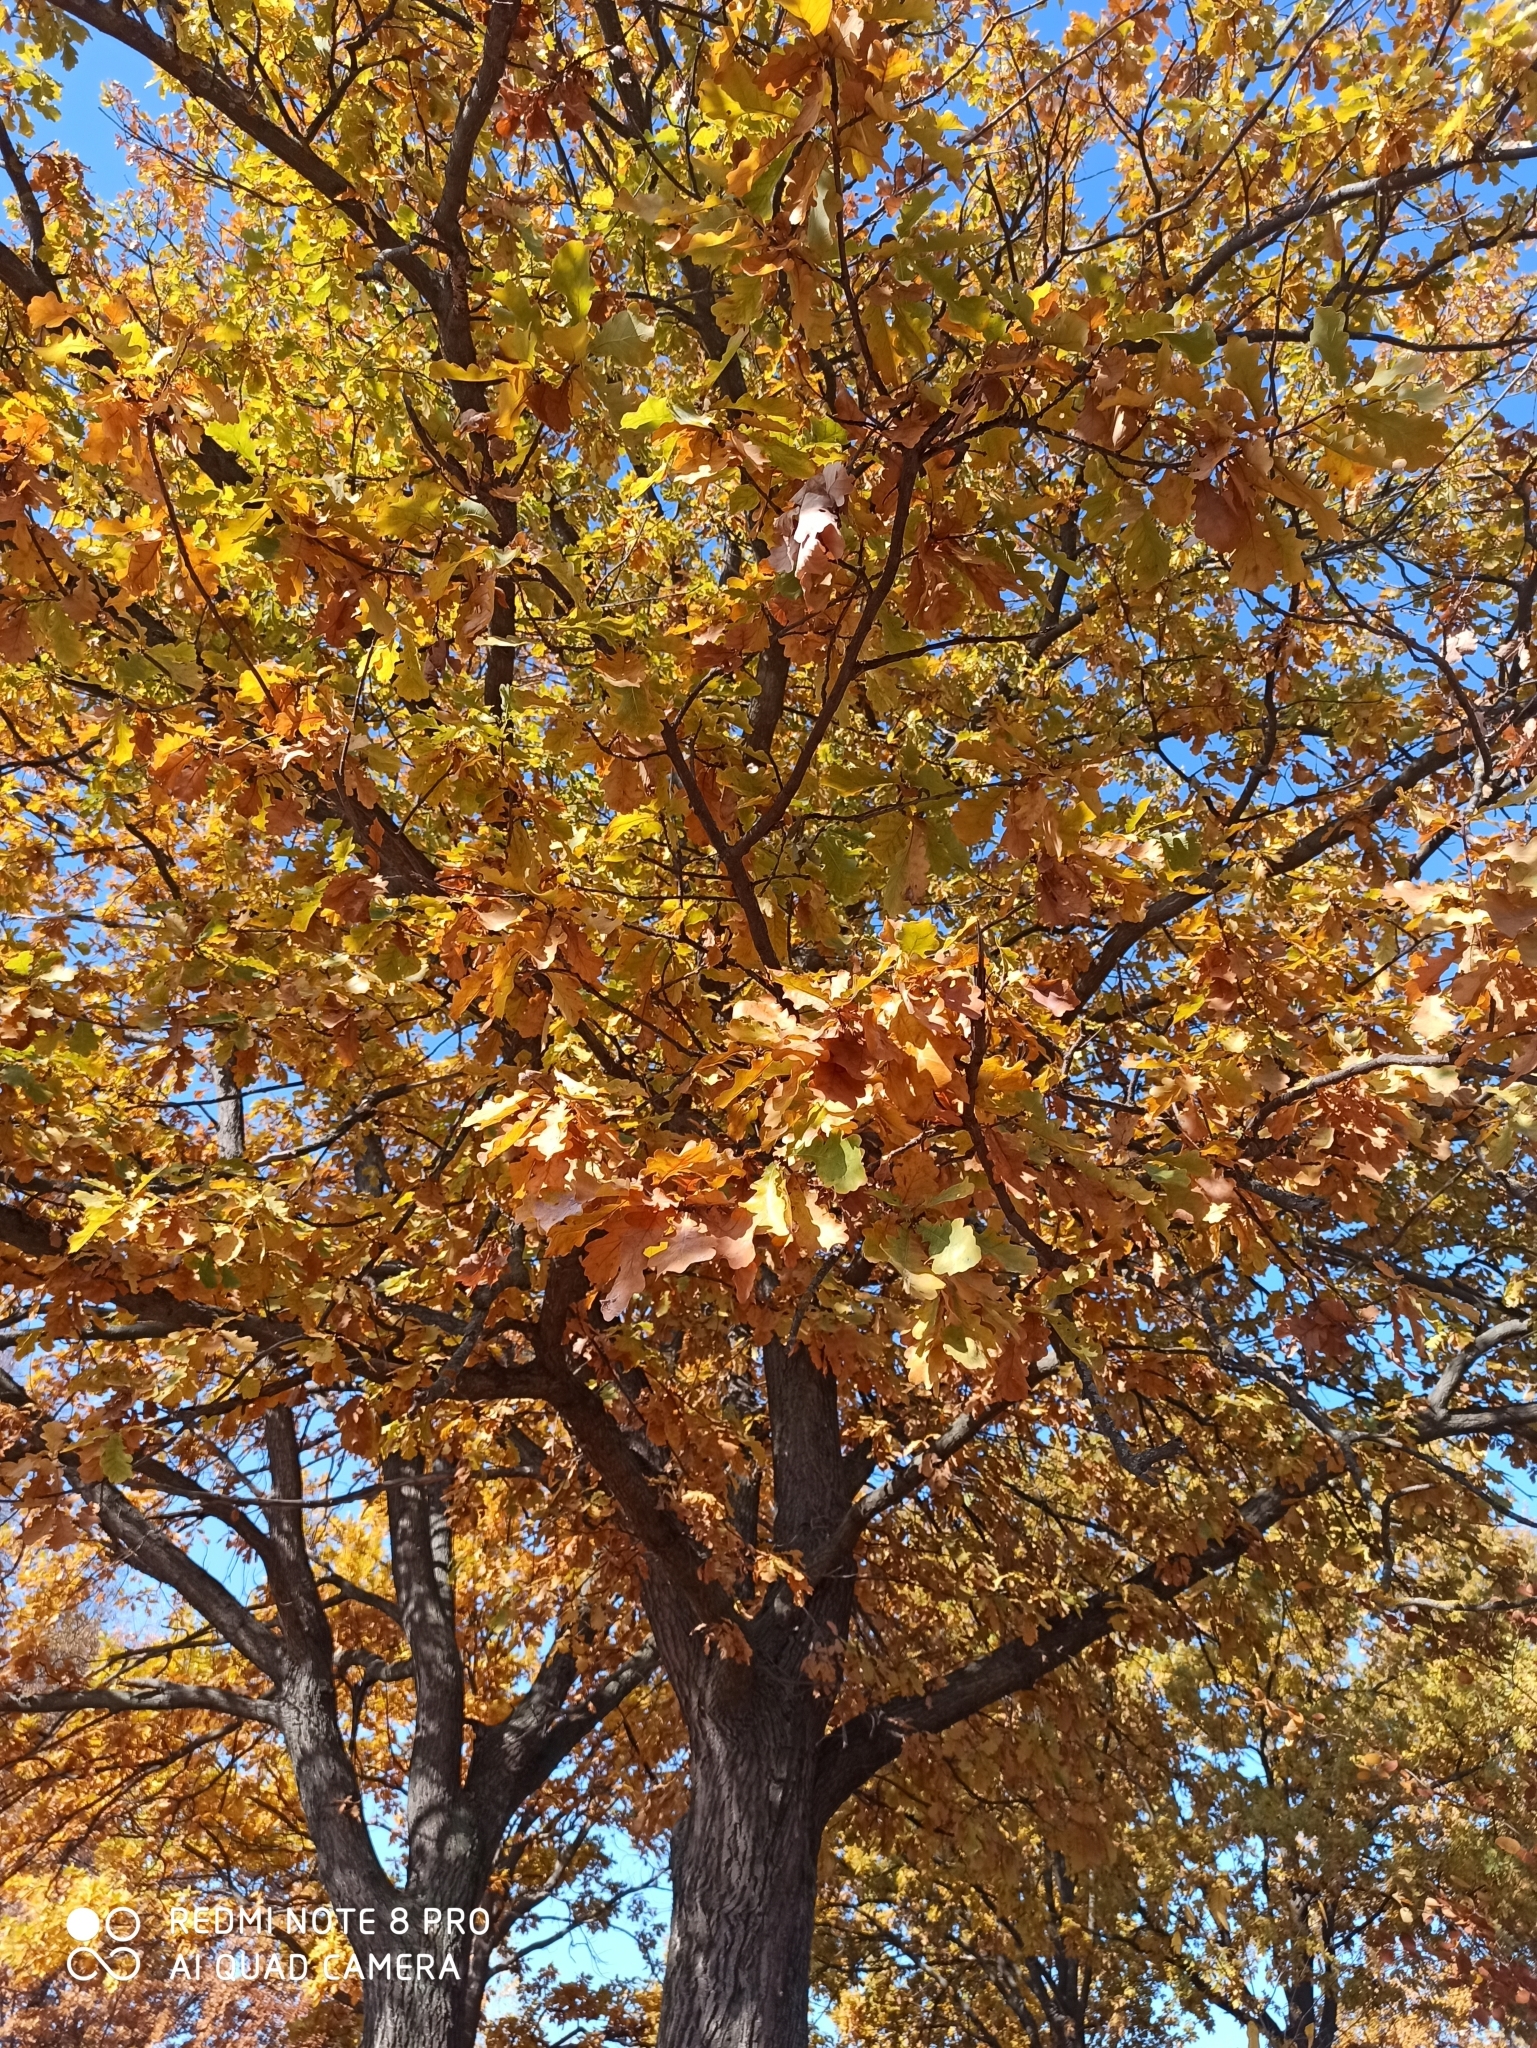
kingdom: Plantae
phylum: Tracheophyta
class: Magnoliopsida
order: Fagales
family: Fagaceae
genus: Quercus
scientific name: Quercus robur
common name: Pedunculate oak
